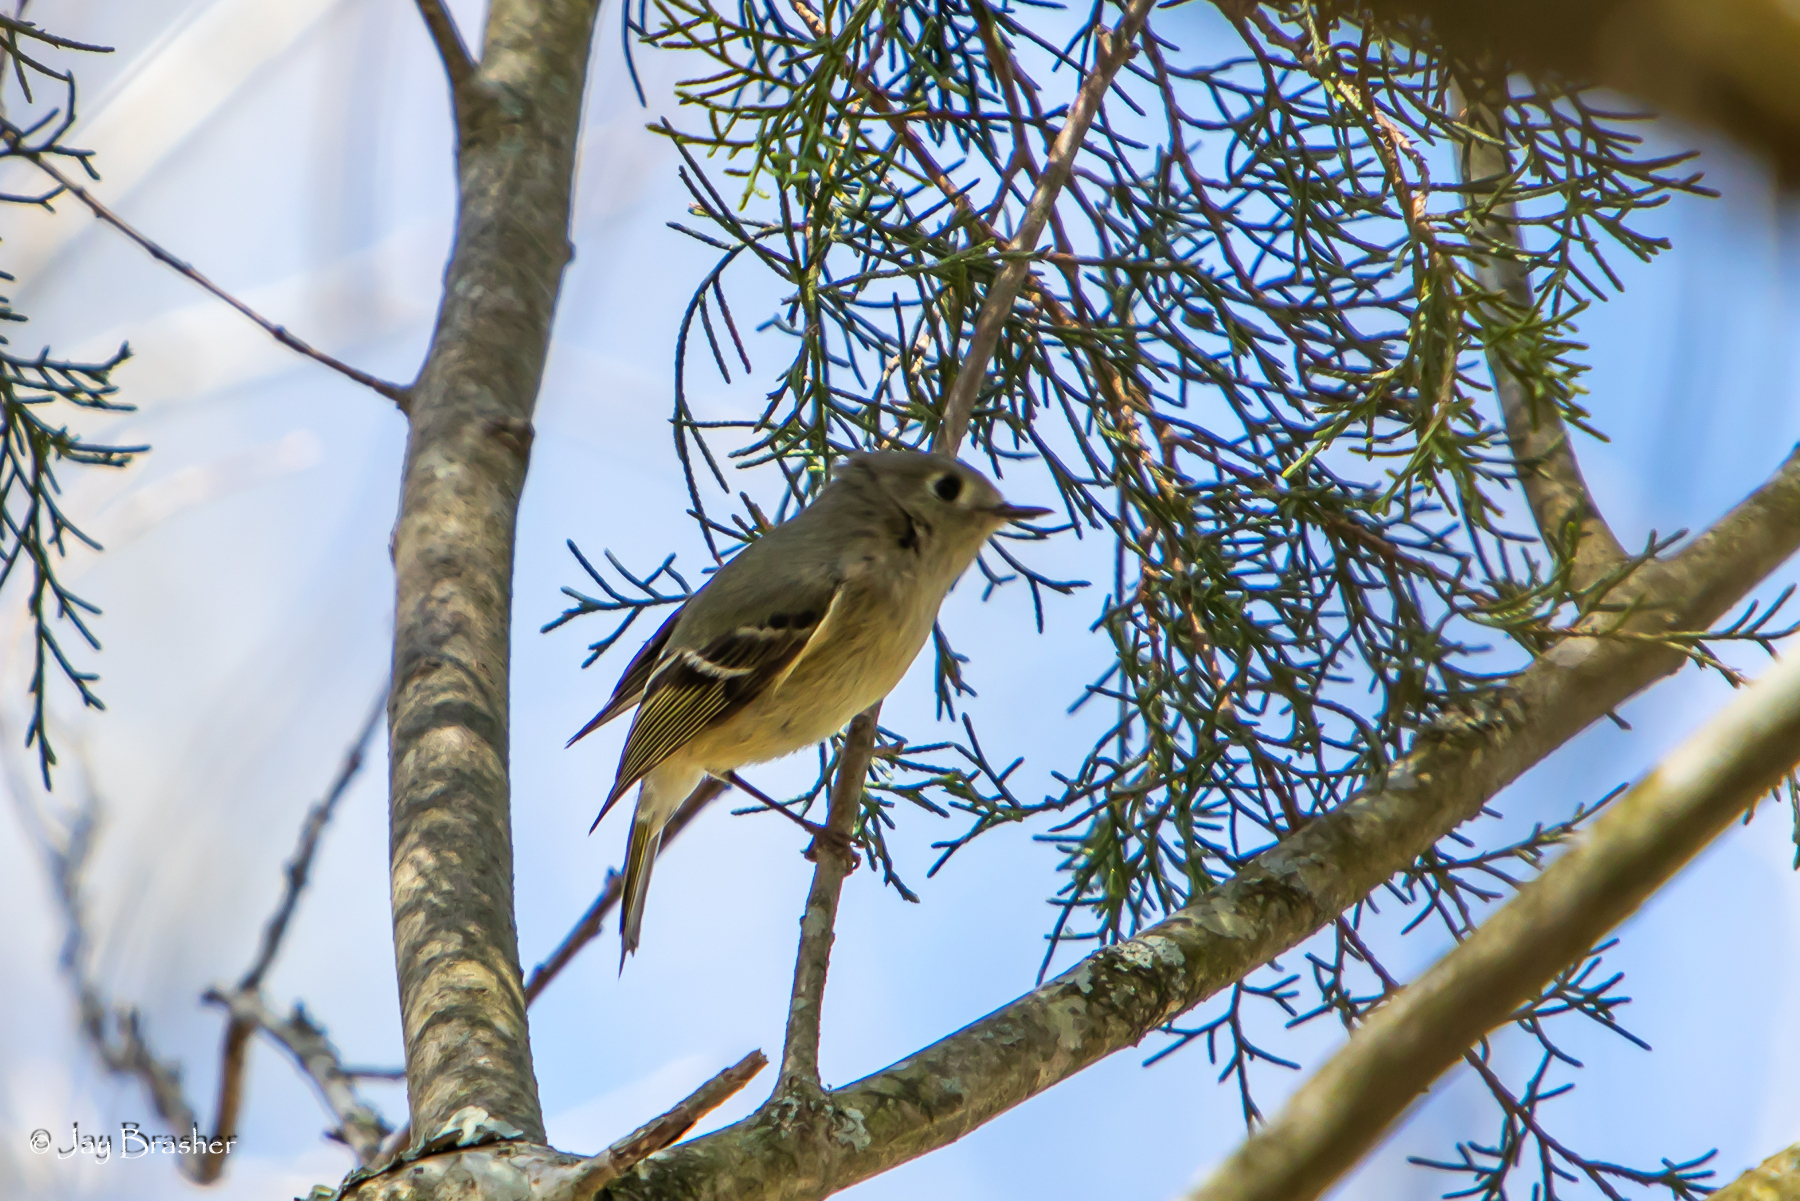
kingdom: Animalia
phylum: Chordata
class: Aves
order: Passeriformes
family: Regulidae
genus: Regulus
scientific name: Regulus calendula
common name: Ruby-crowned kinglet
